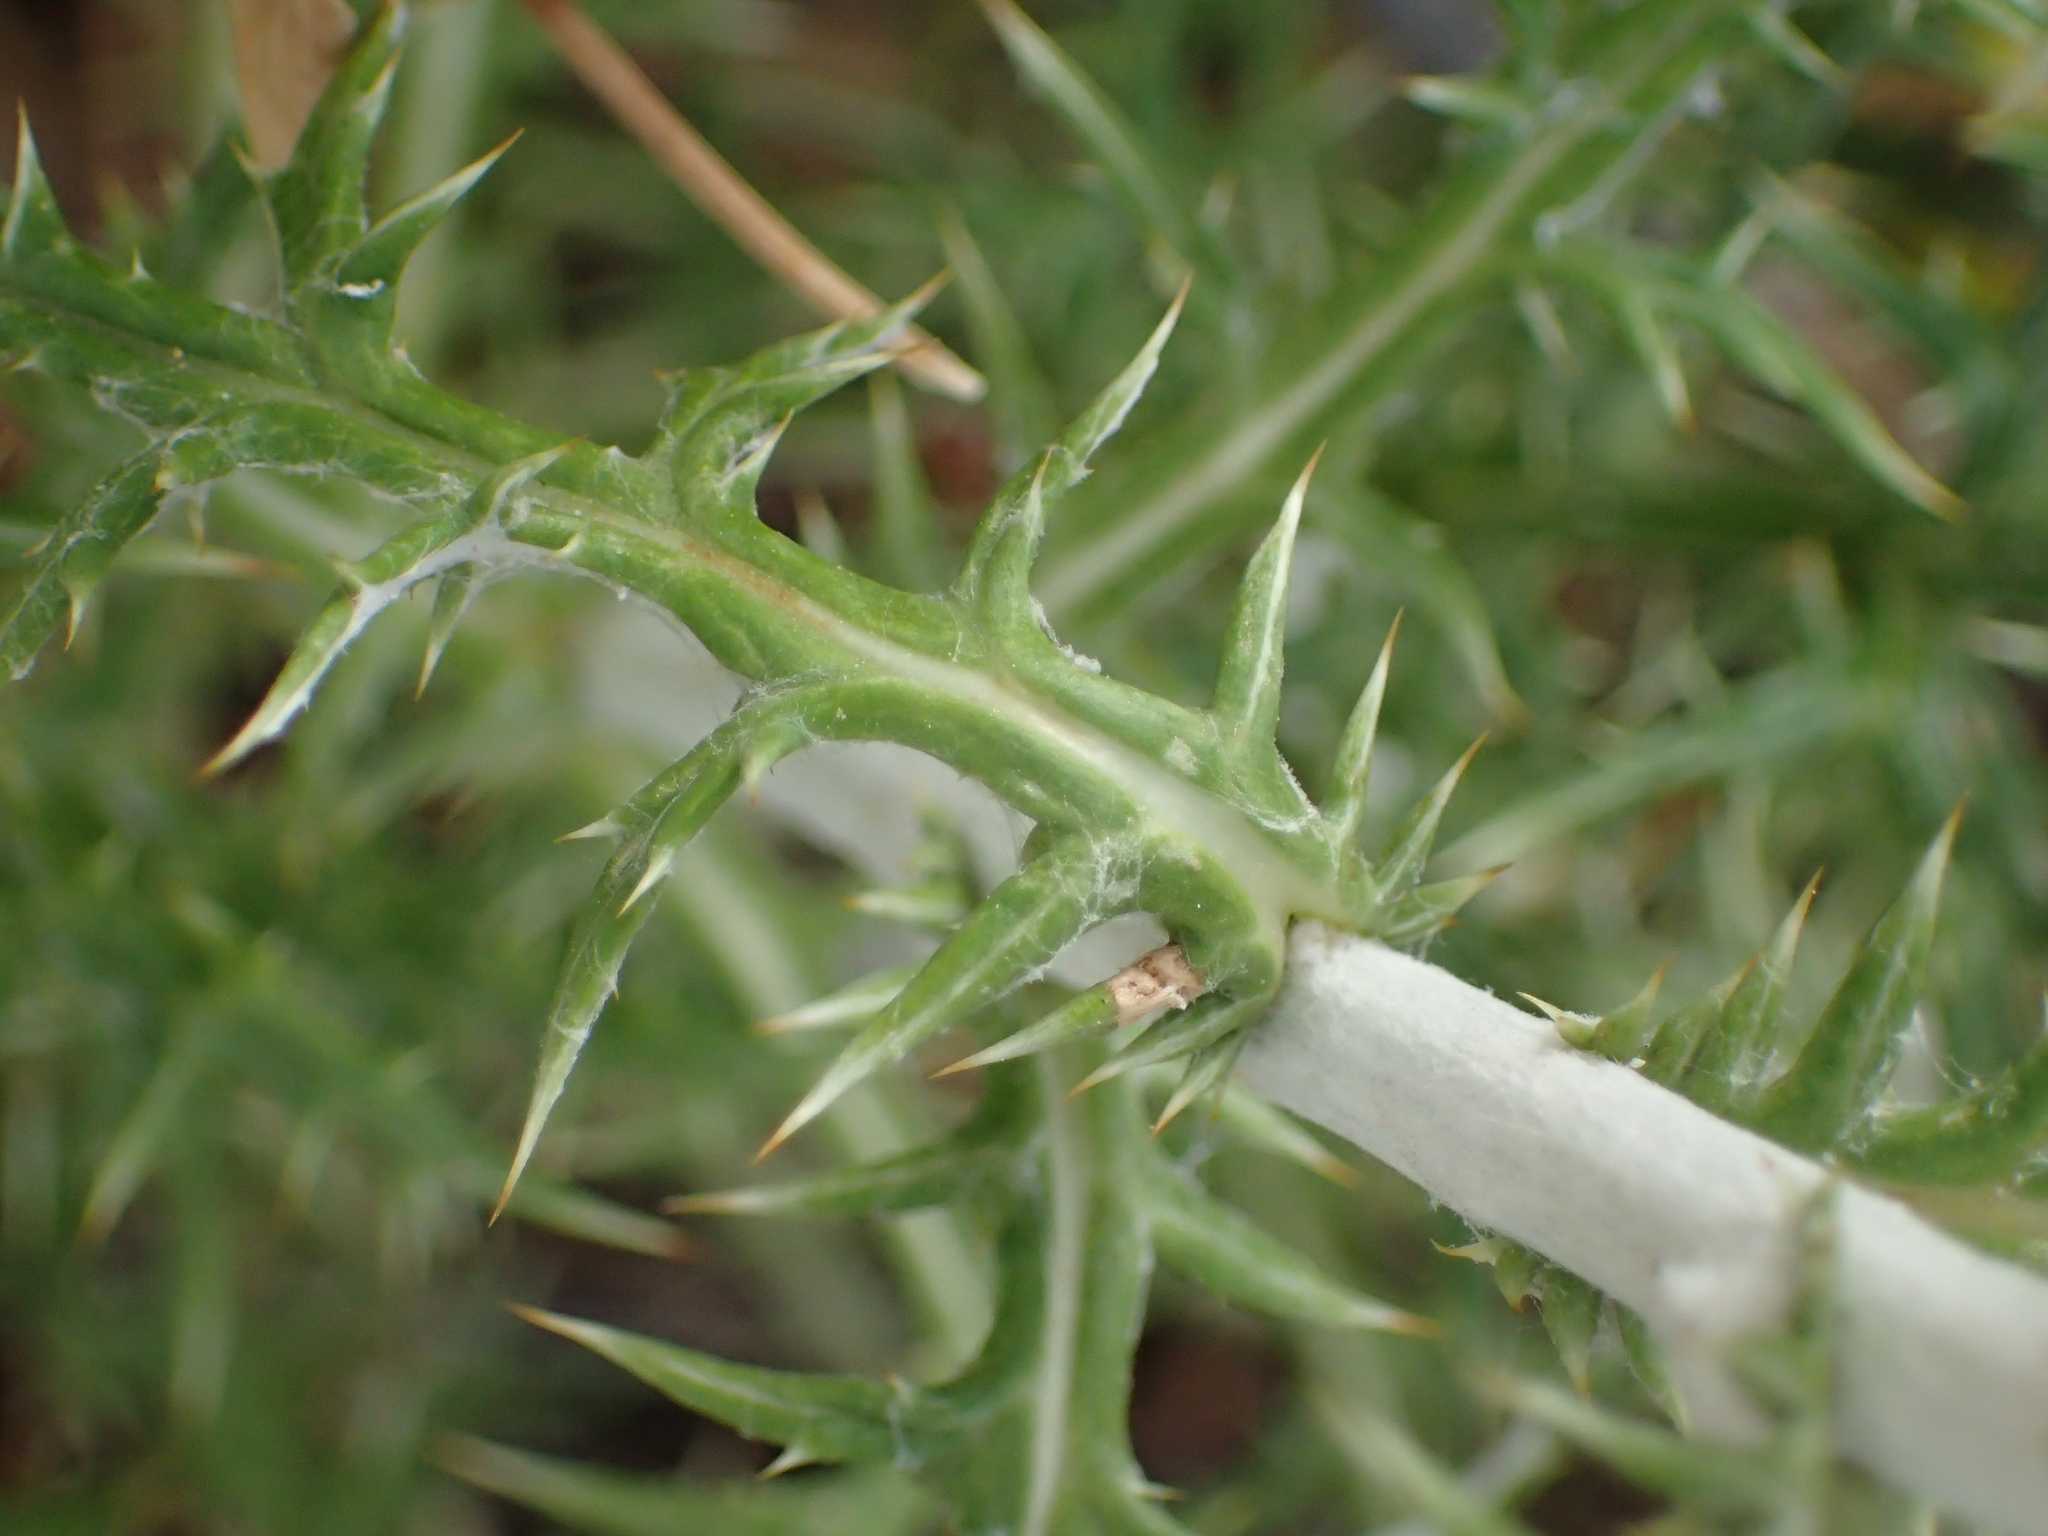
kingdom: Plantae
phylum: Tracheophyta
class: Magnoliopsida
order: Asterales
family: Asteraceae
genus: Echinops
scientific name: Echinops ritro
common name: Globe thistle
